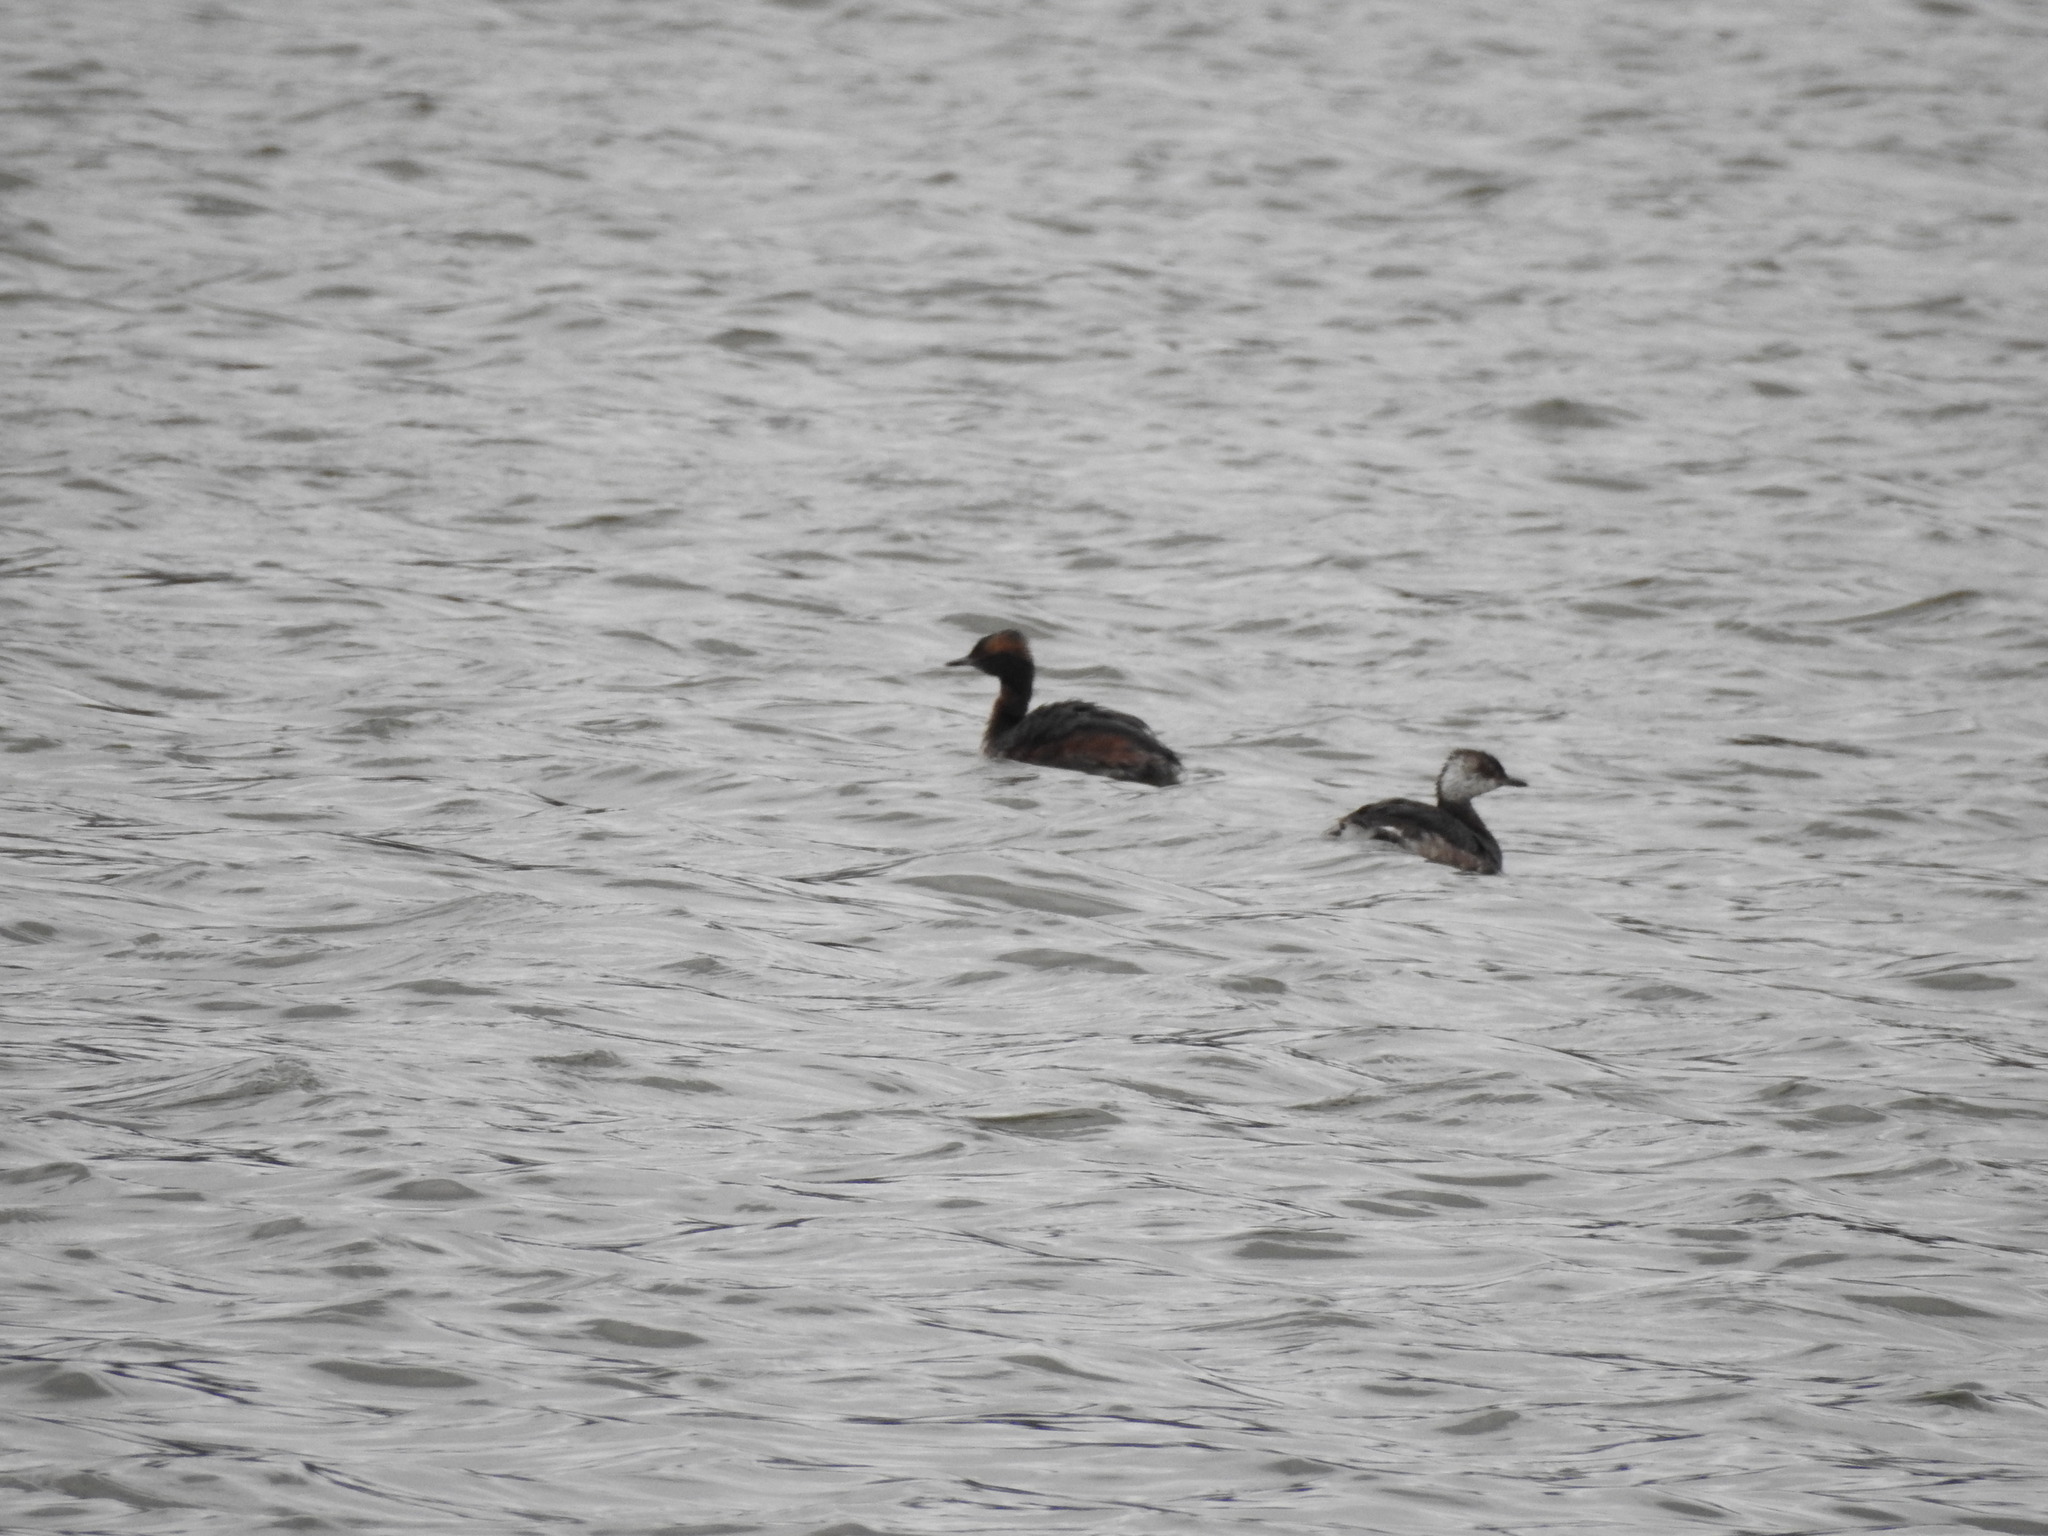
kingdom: Animalia
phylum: Chordata
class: Aves
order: Podicipediformes
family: Podicipedidae
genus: Podiceps
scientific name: Podiceps auritus
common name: Horned grebe
